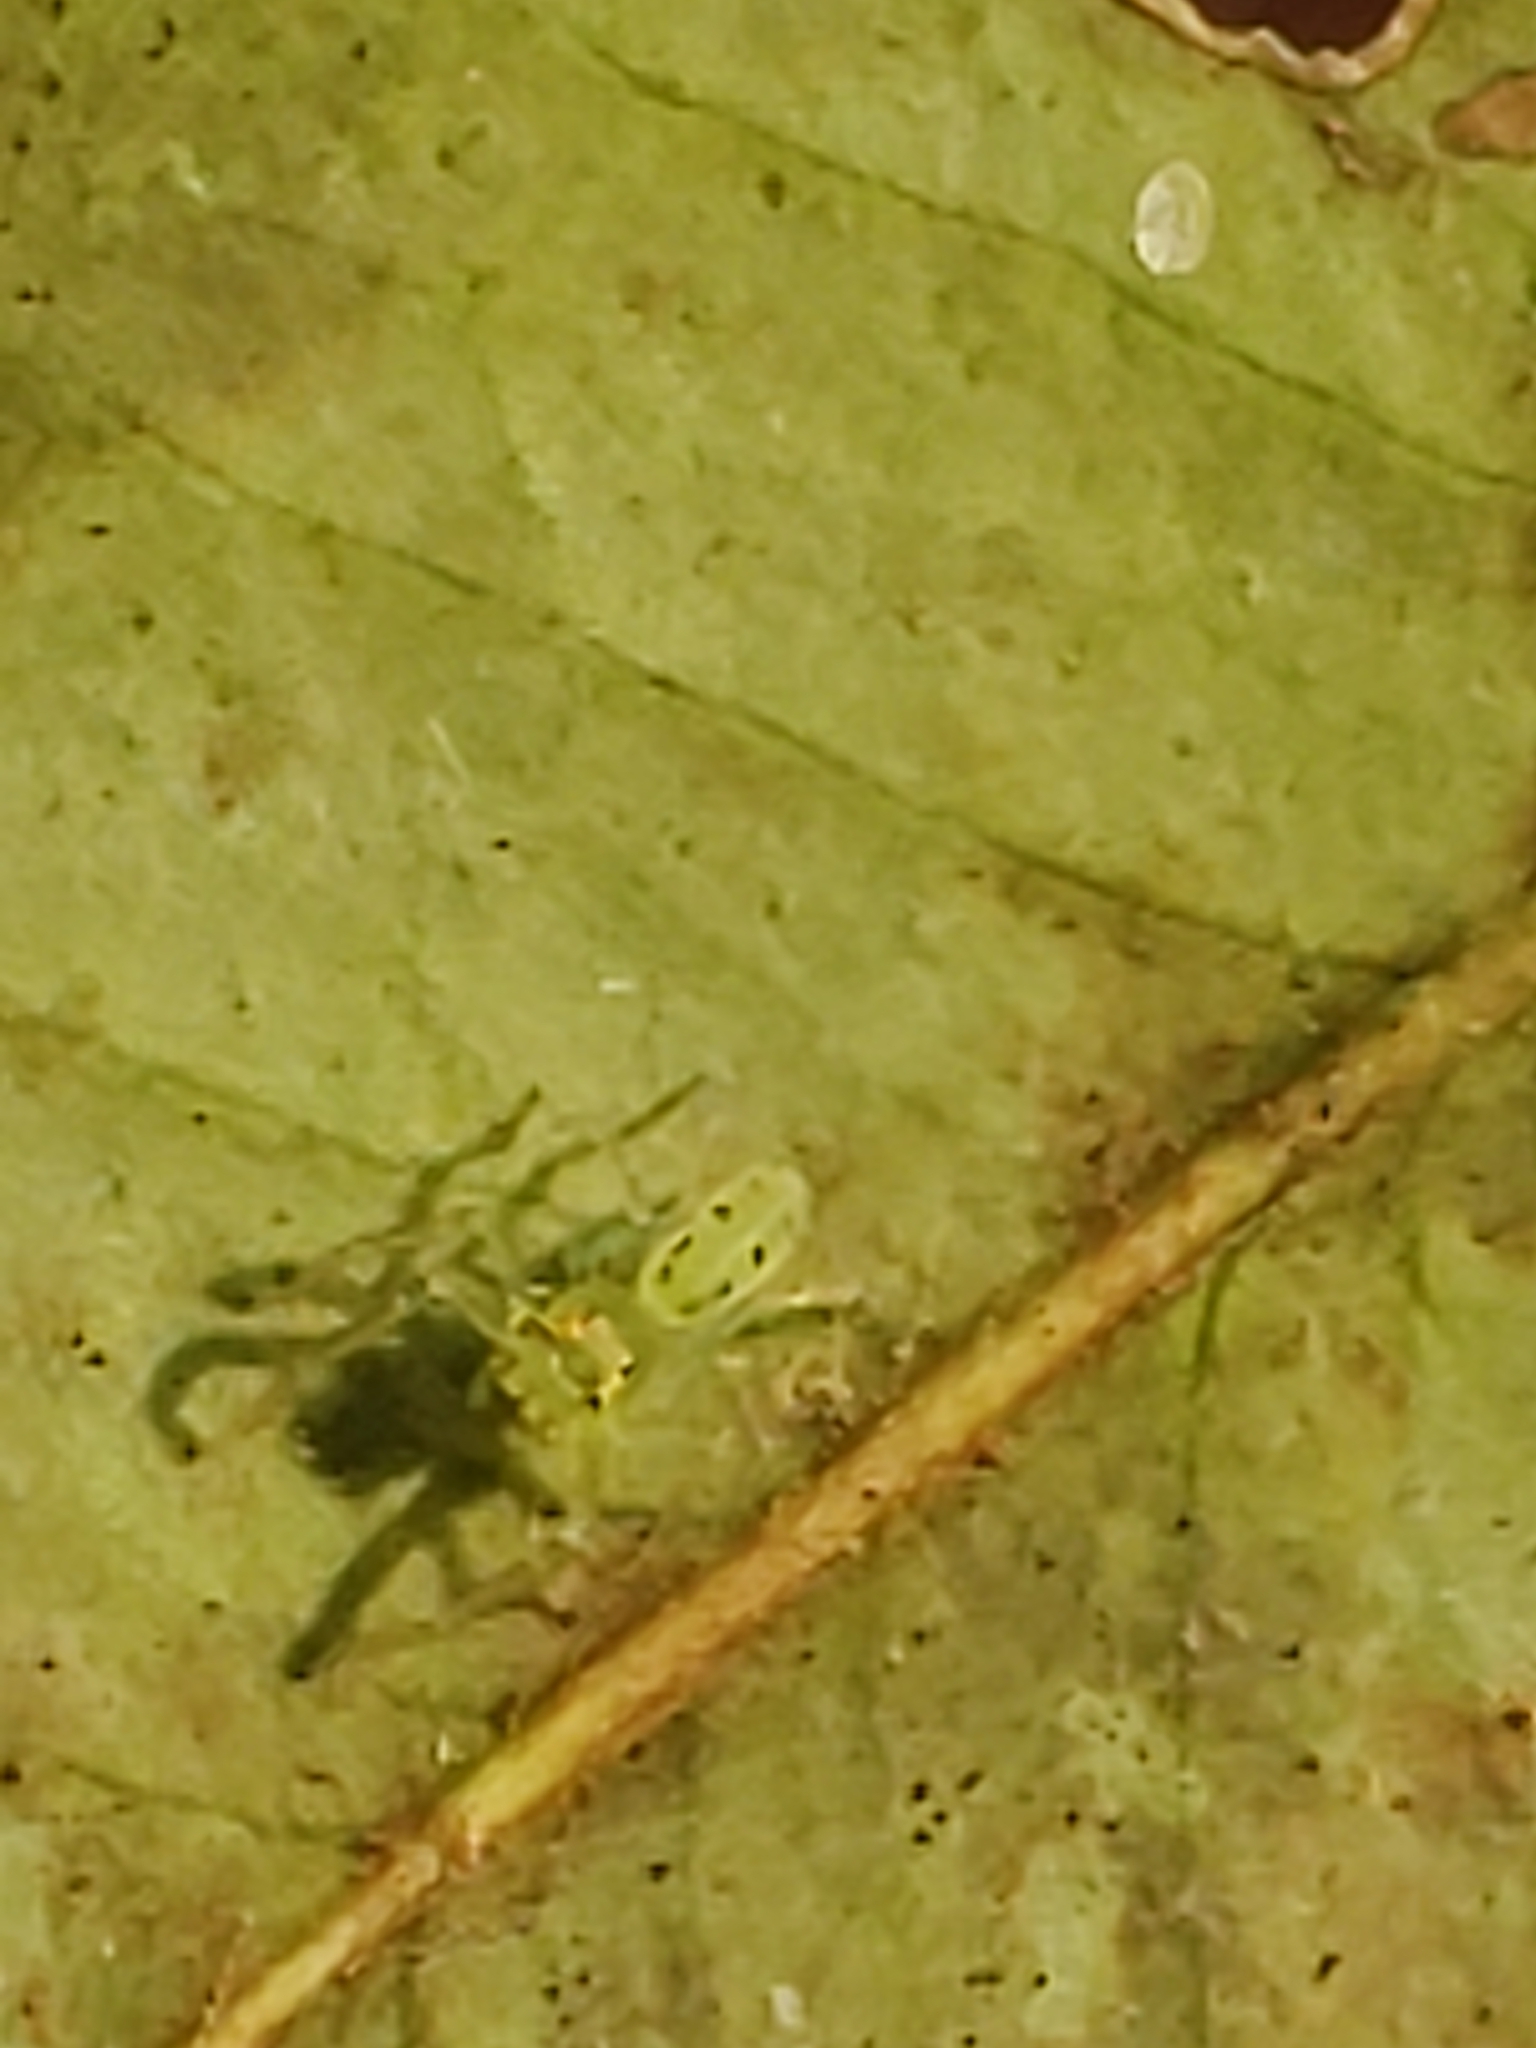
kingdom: Animalia
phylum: Arthropoda
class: Arachnida
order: Araneae
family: Salticidae
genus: Lyssomanes
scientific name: Lyssomanes viridis
